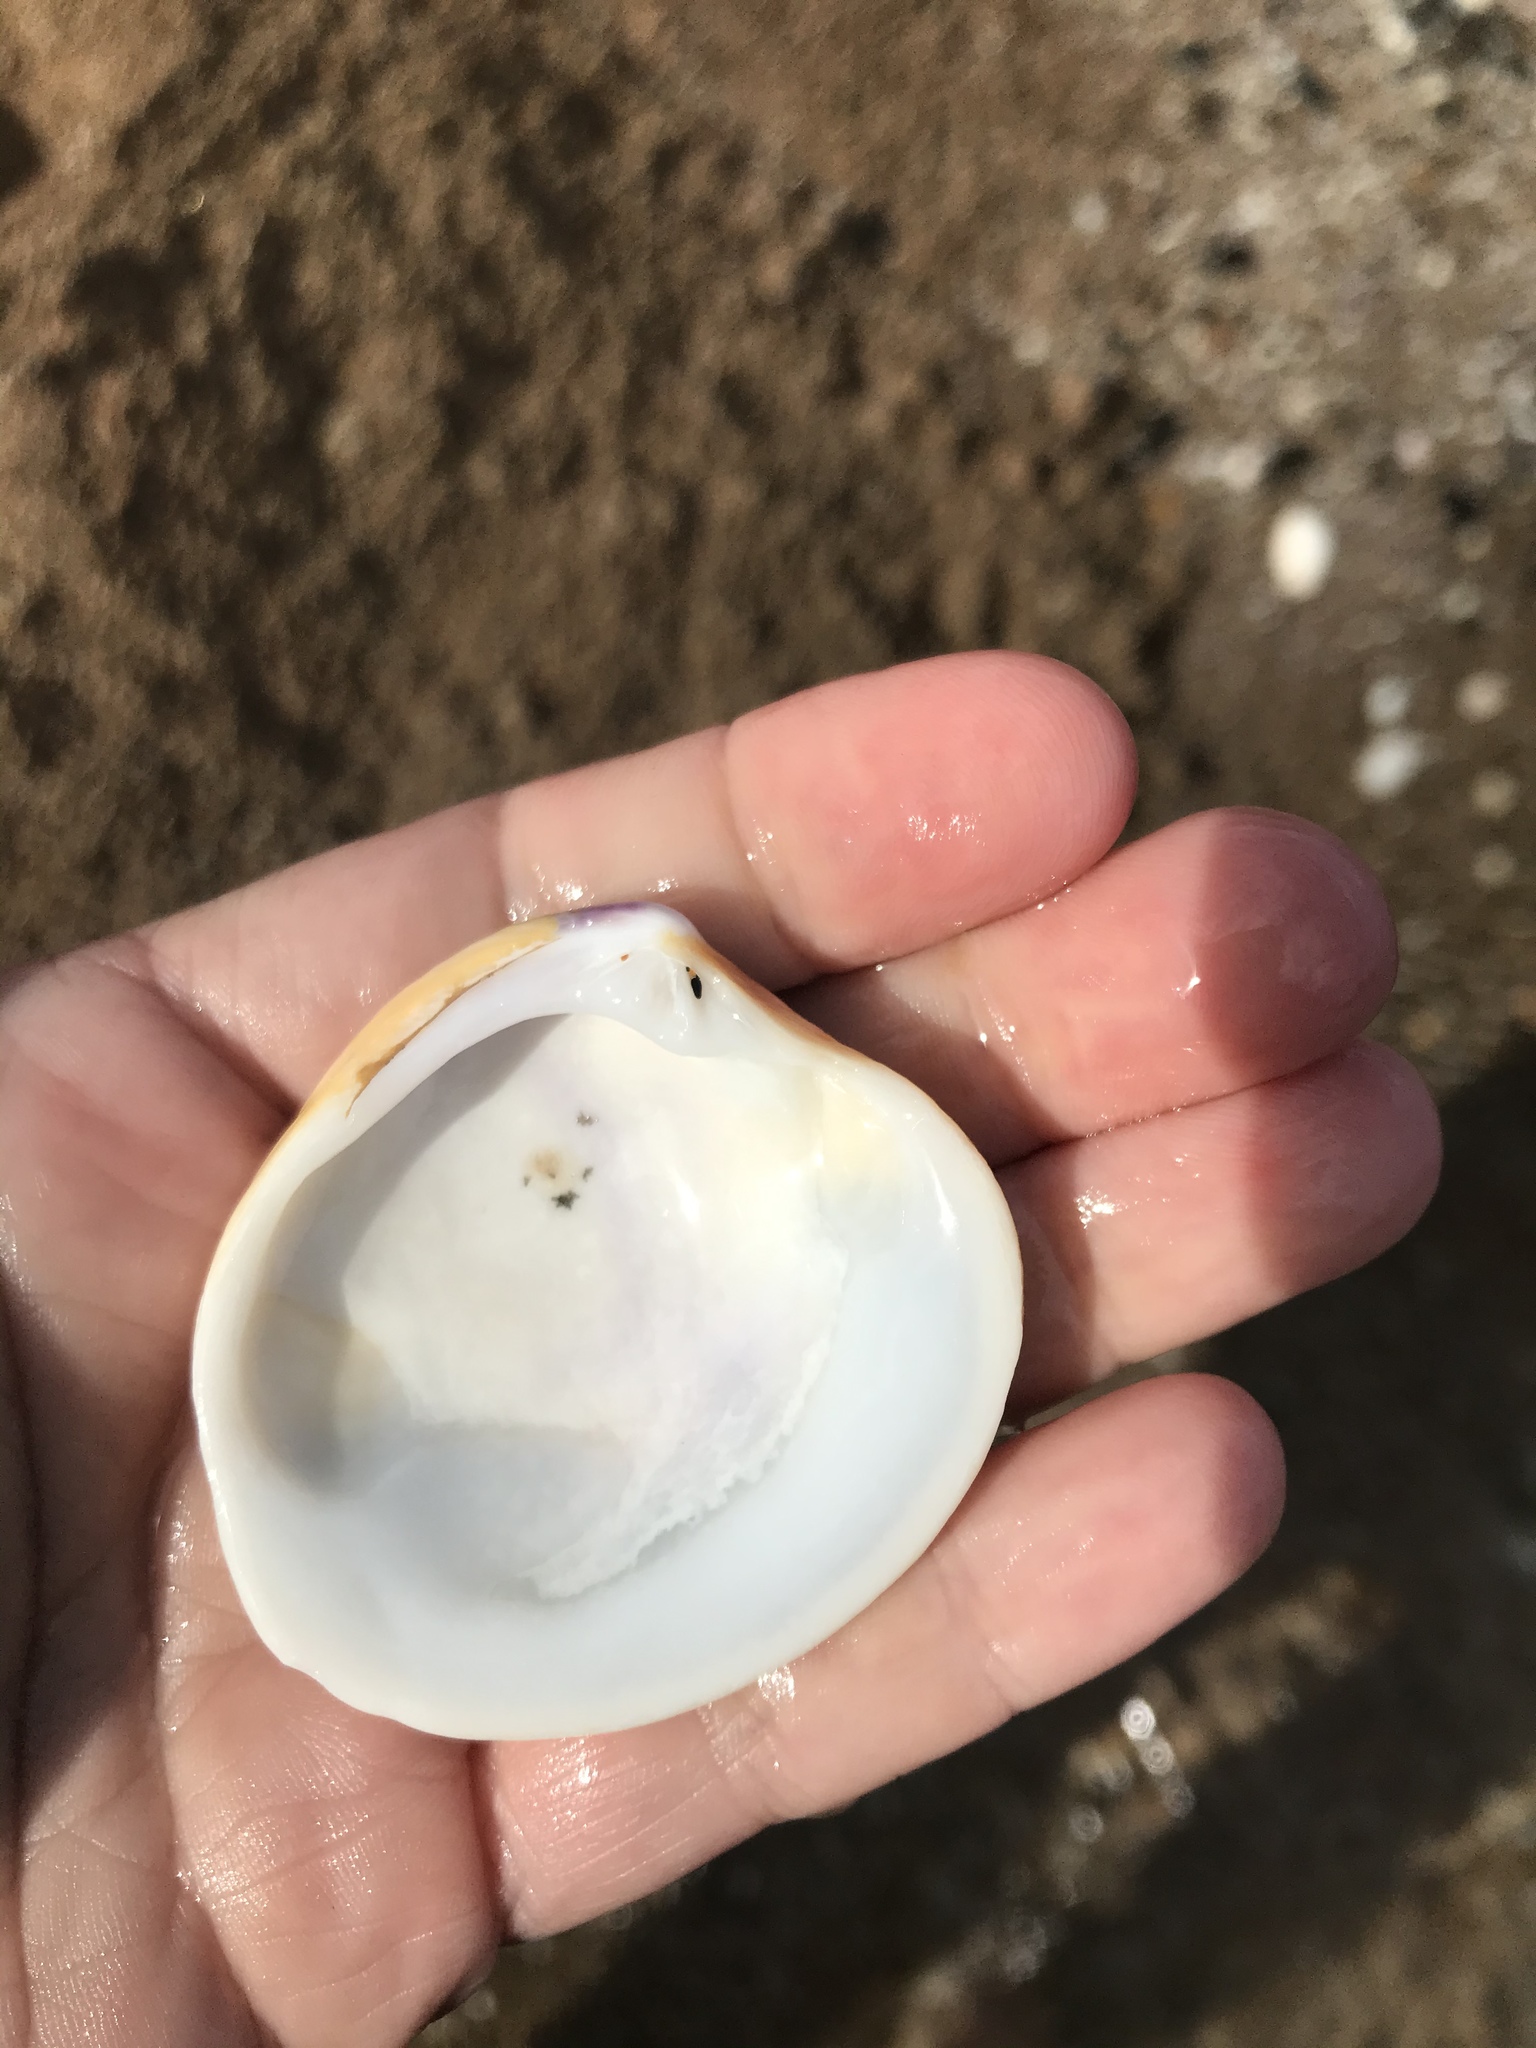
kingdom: Animalia
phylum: Mollusca
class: Bivalvia
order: Venerida
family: Veneridae
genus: Bassina
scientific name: Bassina yatei
